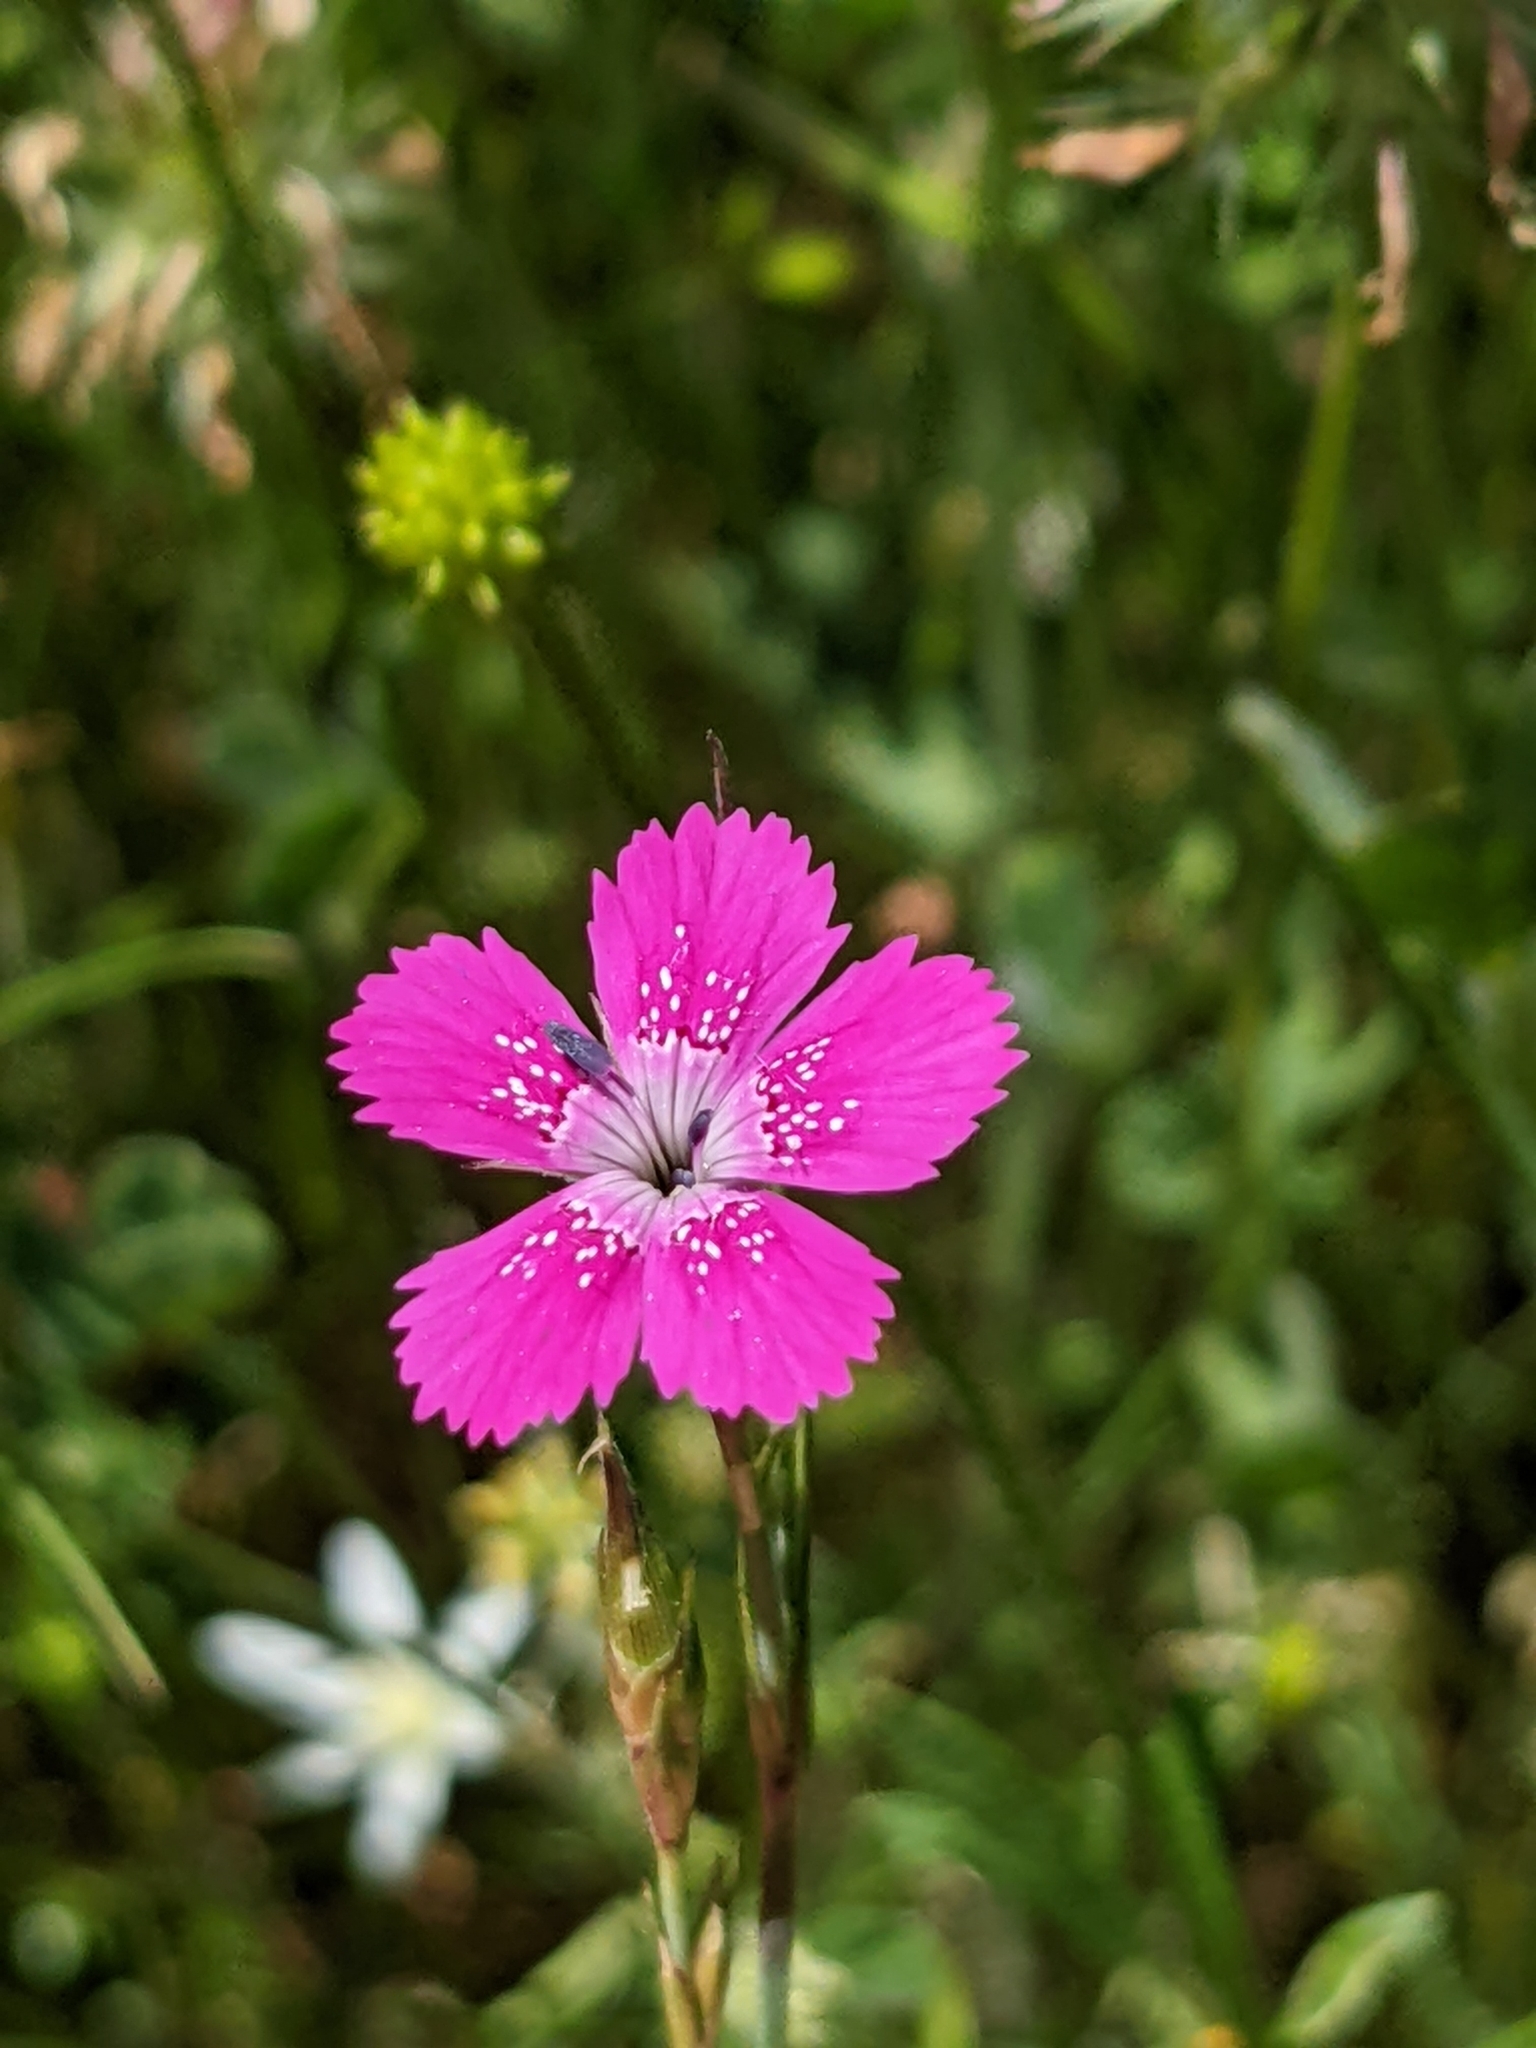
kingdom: Plantae
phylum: Tracheophyta
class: Magnoliopsida
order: Caryophyllales
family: Caryophyllaceae
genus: Dianthus
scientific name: Dianthus deltoides
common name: Maiden pink
